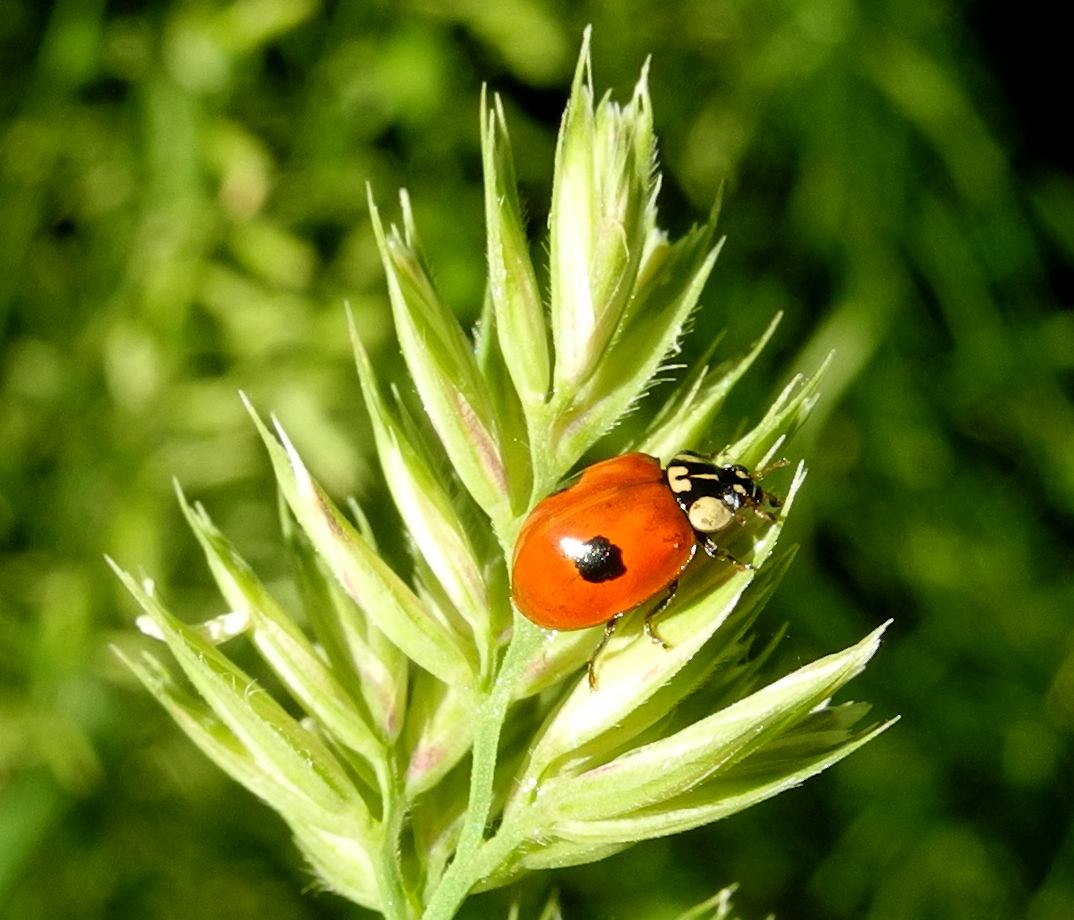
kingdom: Animalia
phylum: Arthropoda
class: Insecta
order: Coleoptera
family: Coccinellidae
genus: Adalia
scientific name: Adalia bipunctata
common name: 2-spot ladybird
